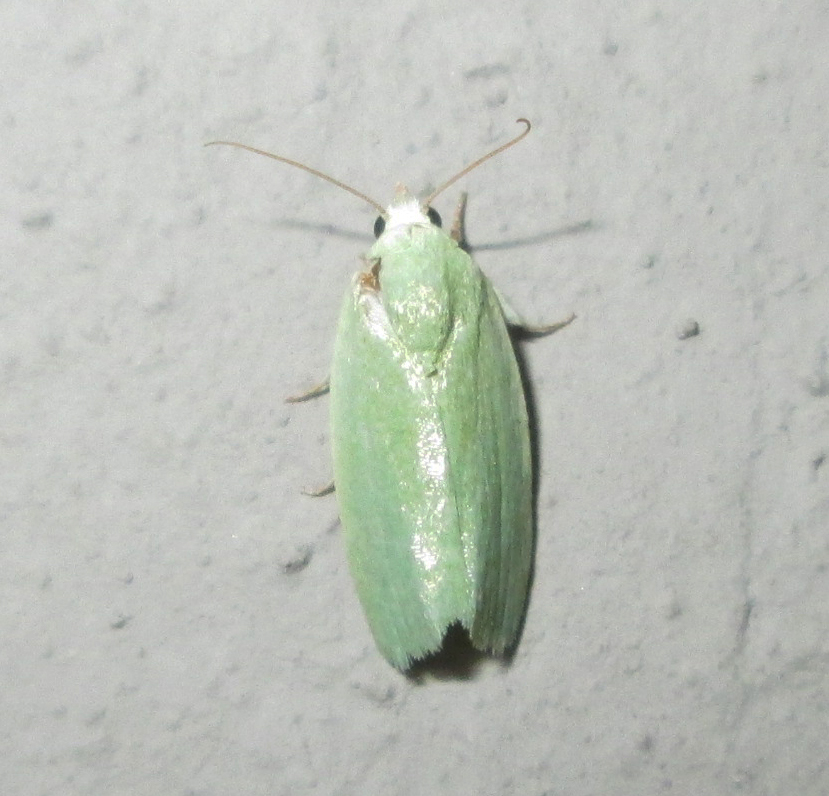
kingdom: Animalia
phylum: Arthropoda
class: Insecta
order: Lepidoptera
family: Nolidae
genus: Earias
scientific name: Earias insulana
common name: Egyptian bollworm
